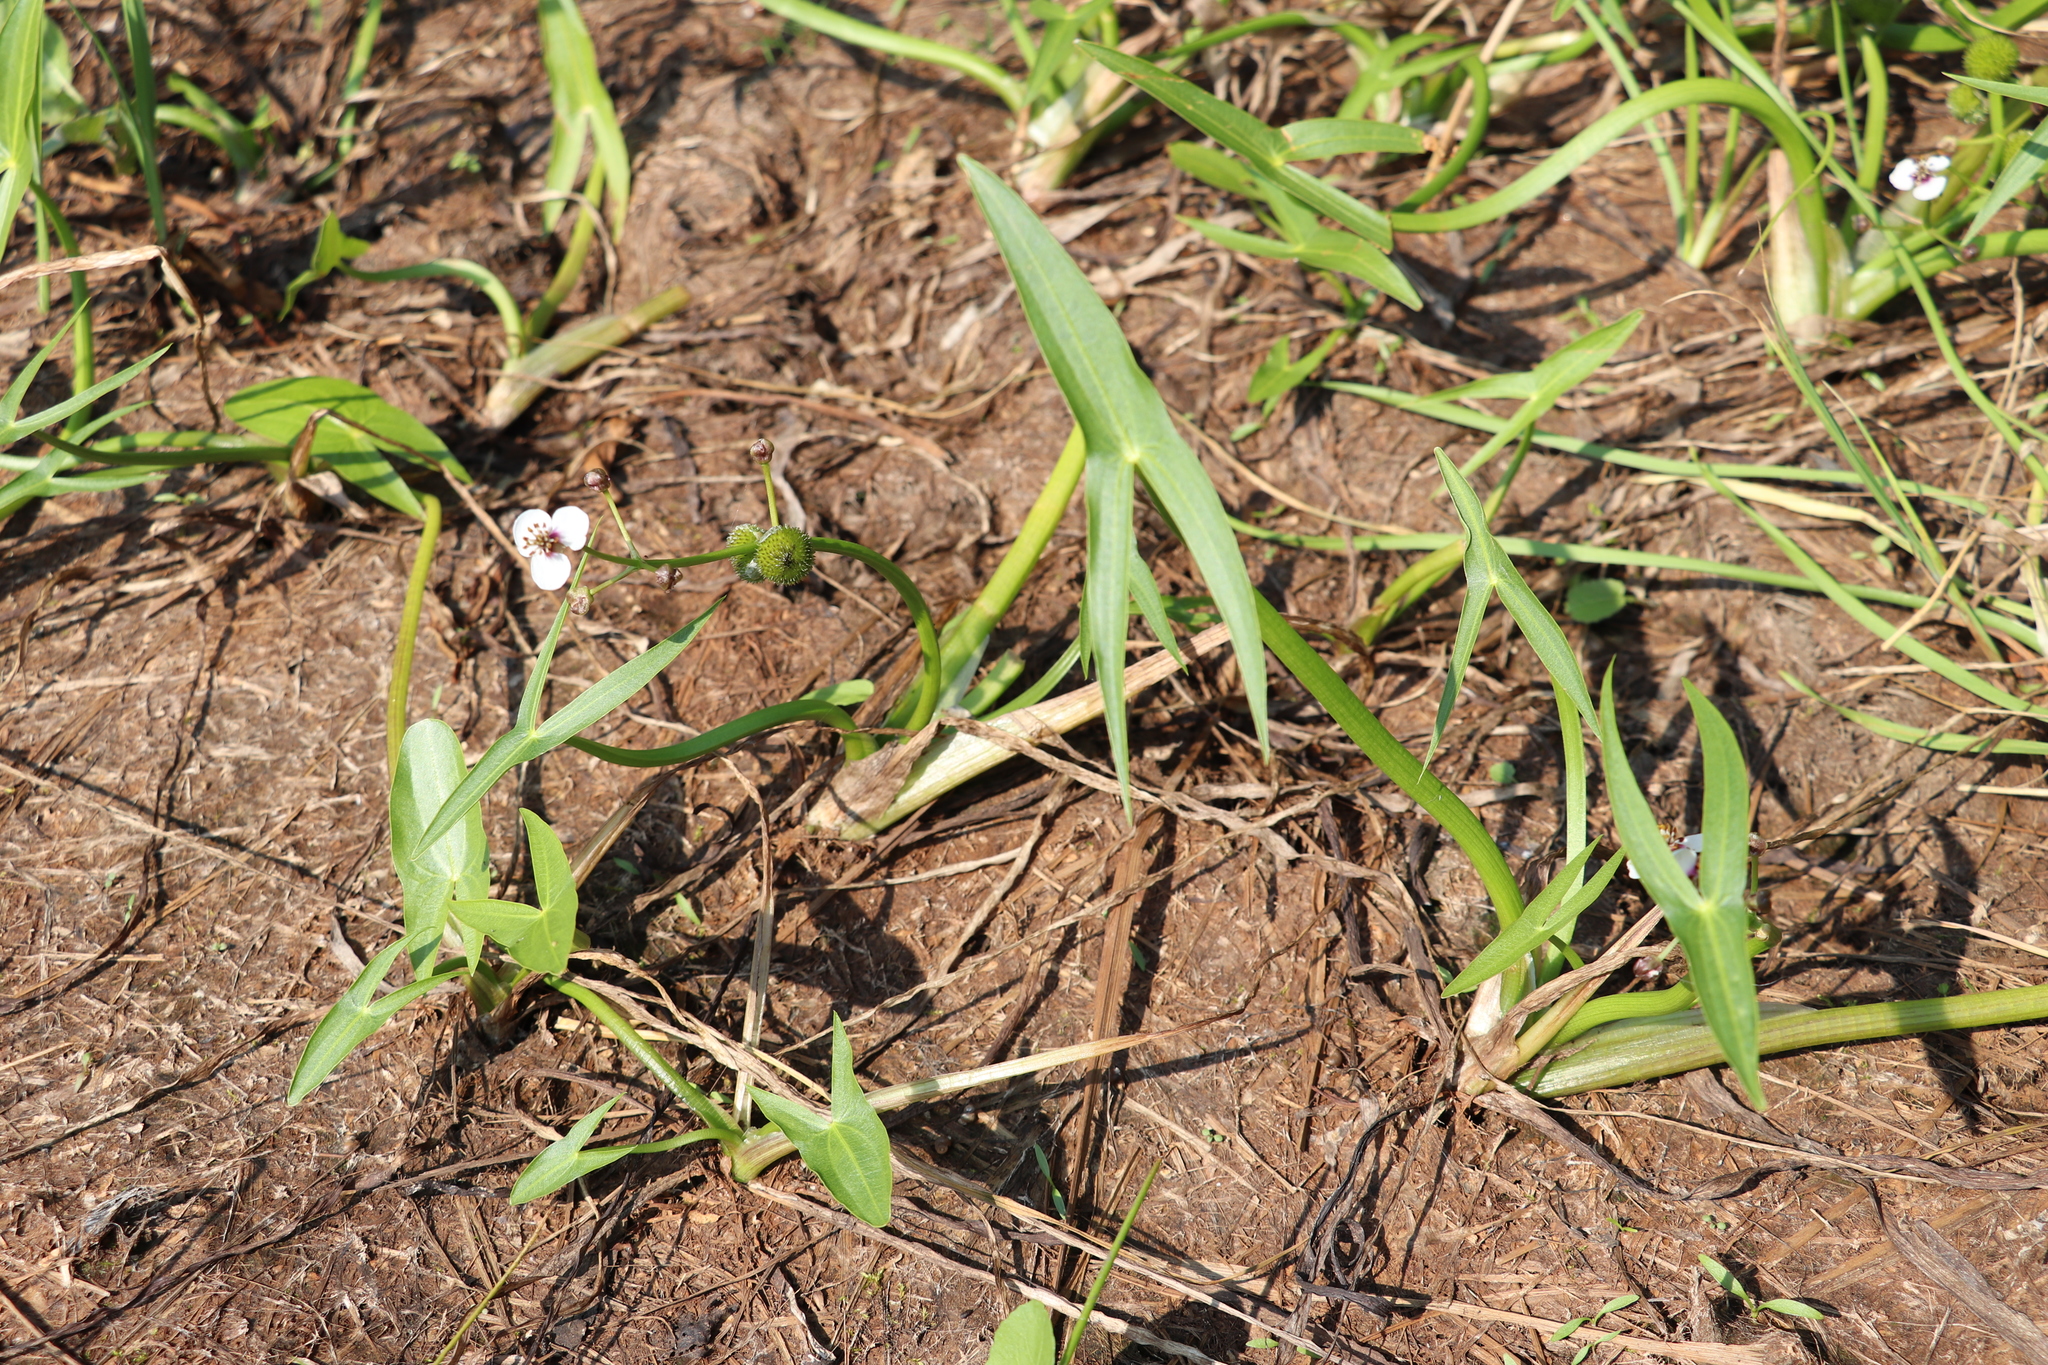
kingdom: Plantae
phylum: Tracheophyta
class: Liliopsida
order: Alismatales
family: Alismataceae
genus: Sagittaria
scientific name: Sagittaria sagittifolia
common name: Arrowhead
